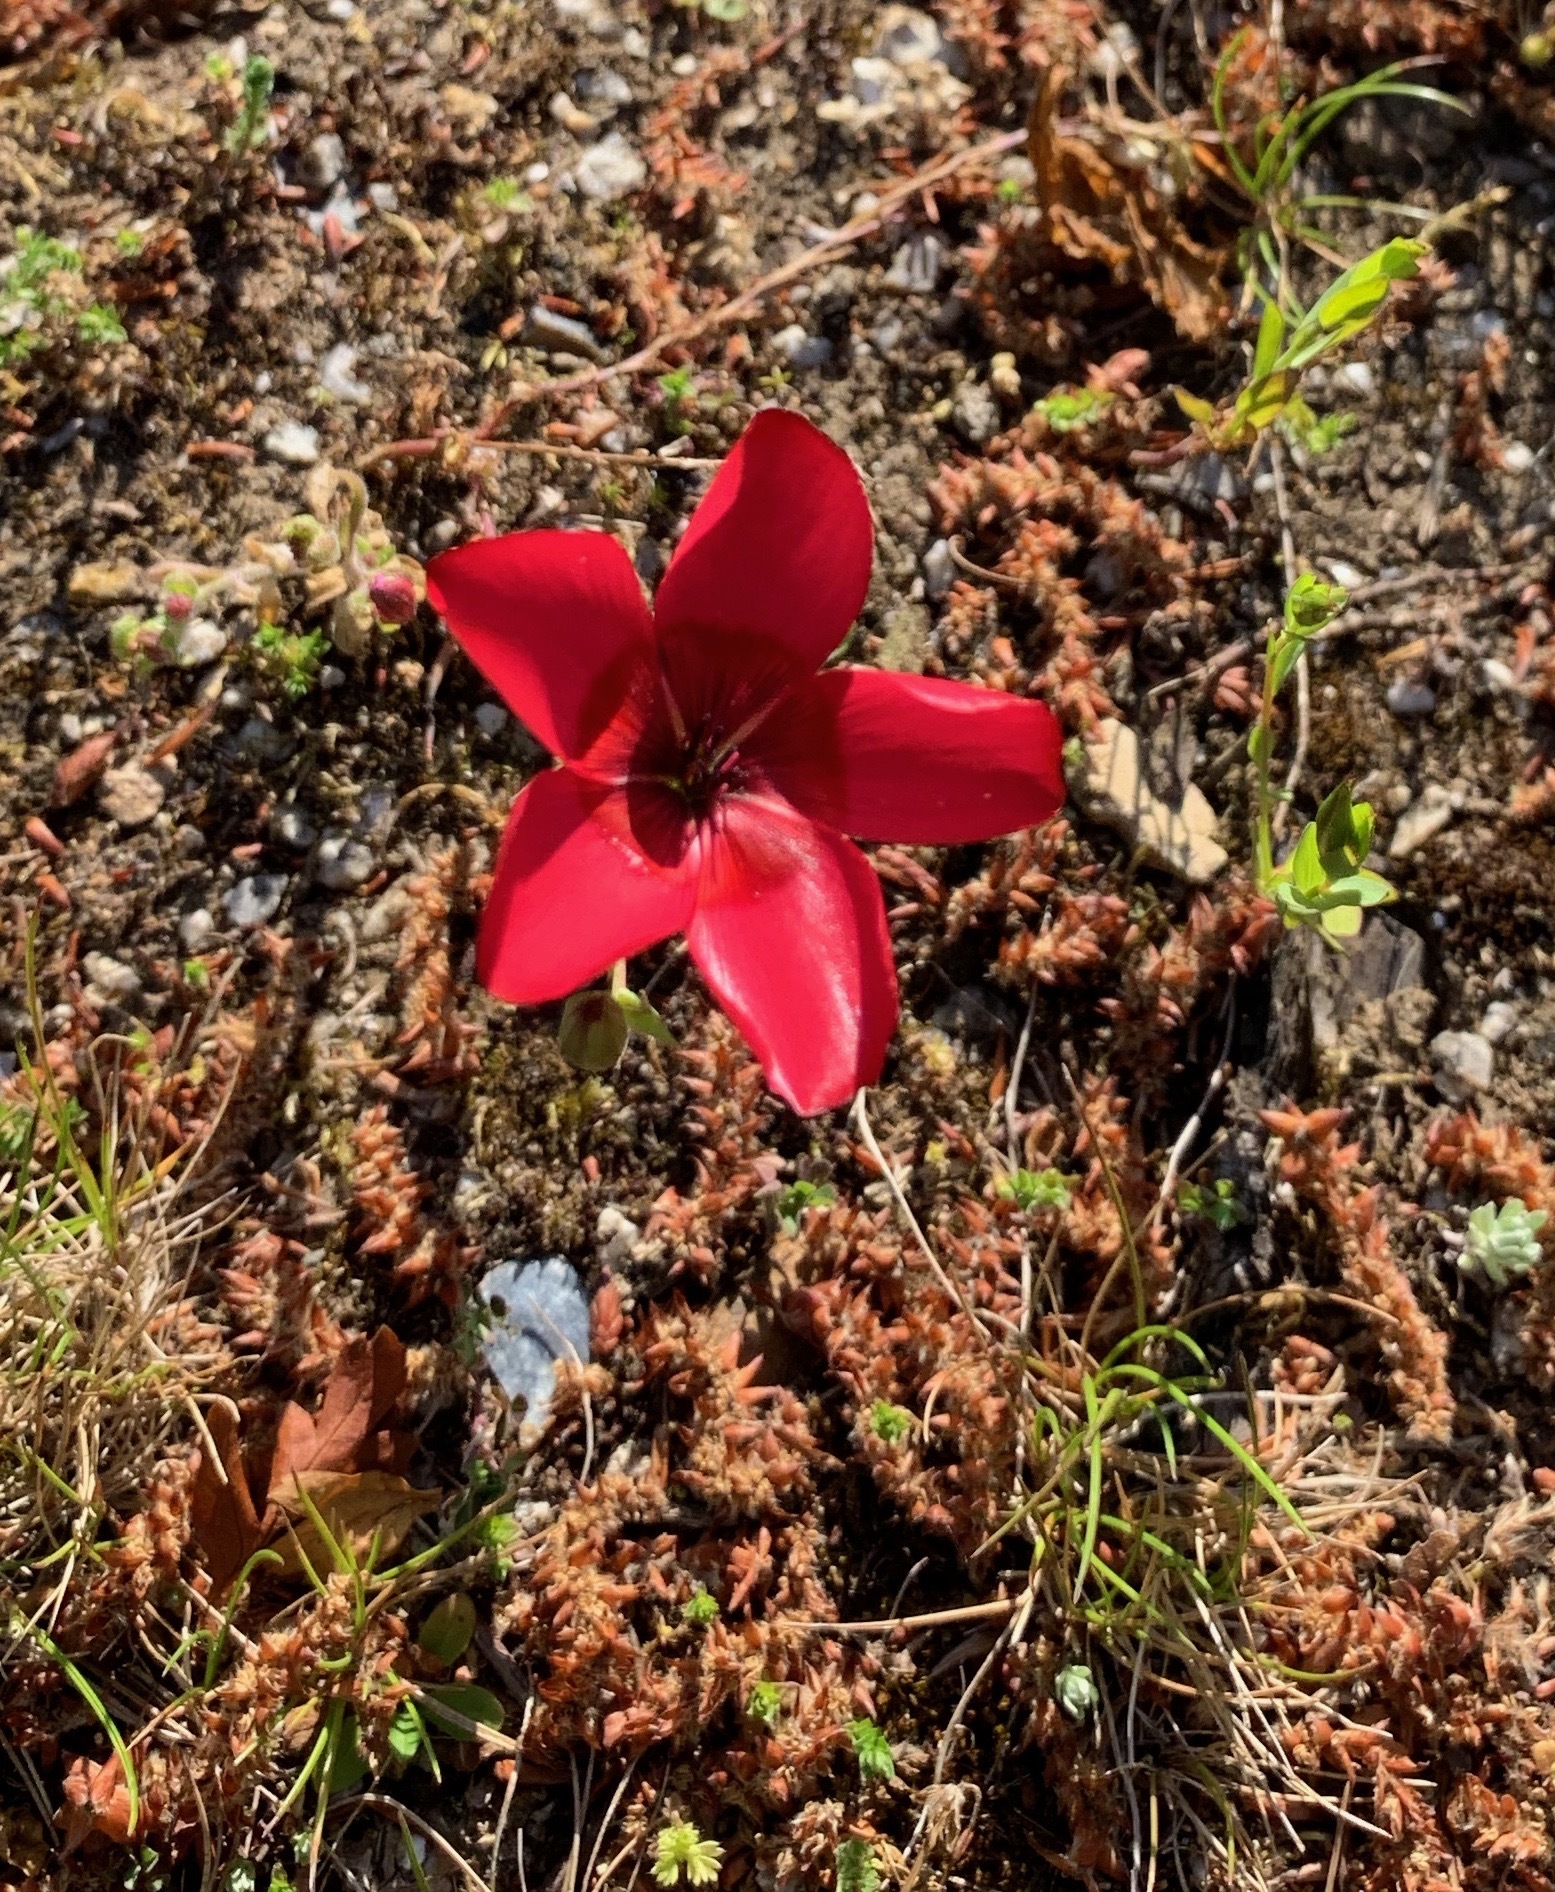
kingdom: Plantae
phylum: Tracheophyta
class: Magnoliopsida
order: Malpighiales
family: Linaceae
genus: Linum
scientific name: Linum grandiflorum
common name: Crimson flax
